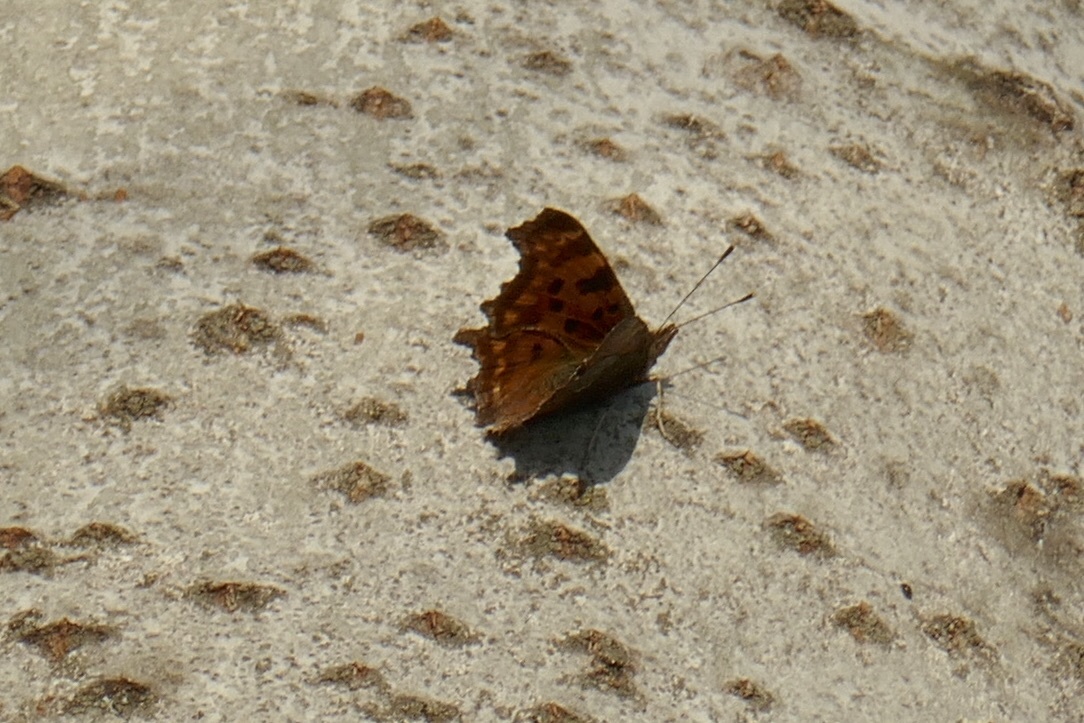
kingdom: Animalia
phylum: Arthropoda
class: Insecta
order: Lepidoptera
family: Nymphalidae
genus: Polygonia
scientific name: Polygonia c-album
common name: Comma
